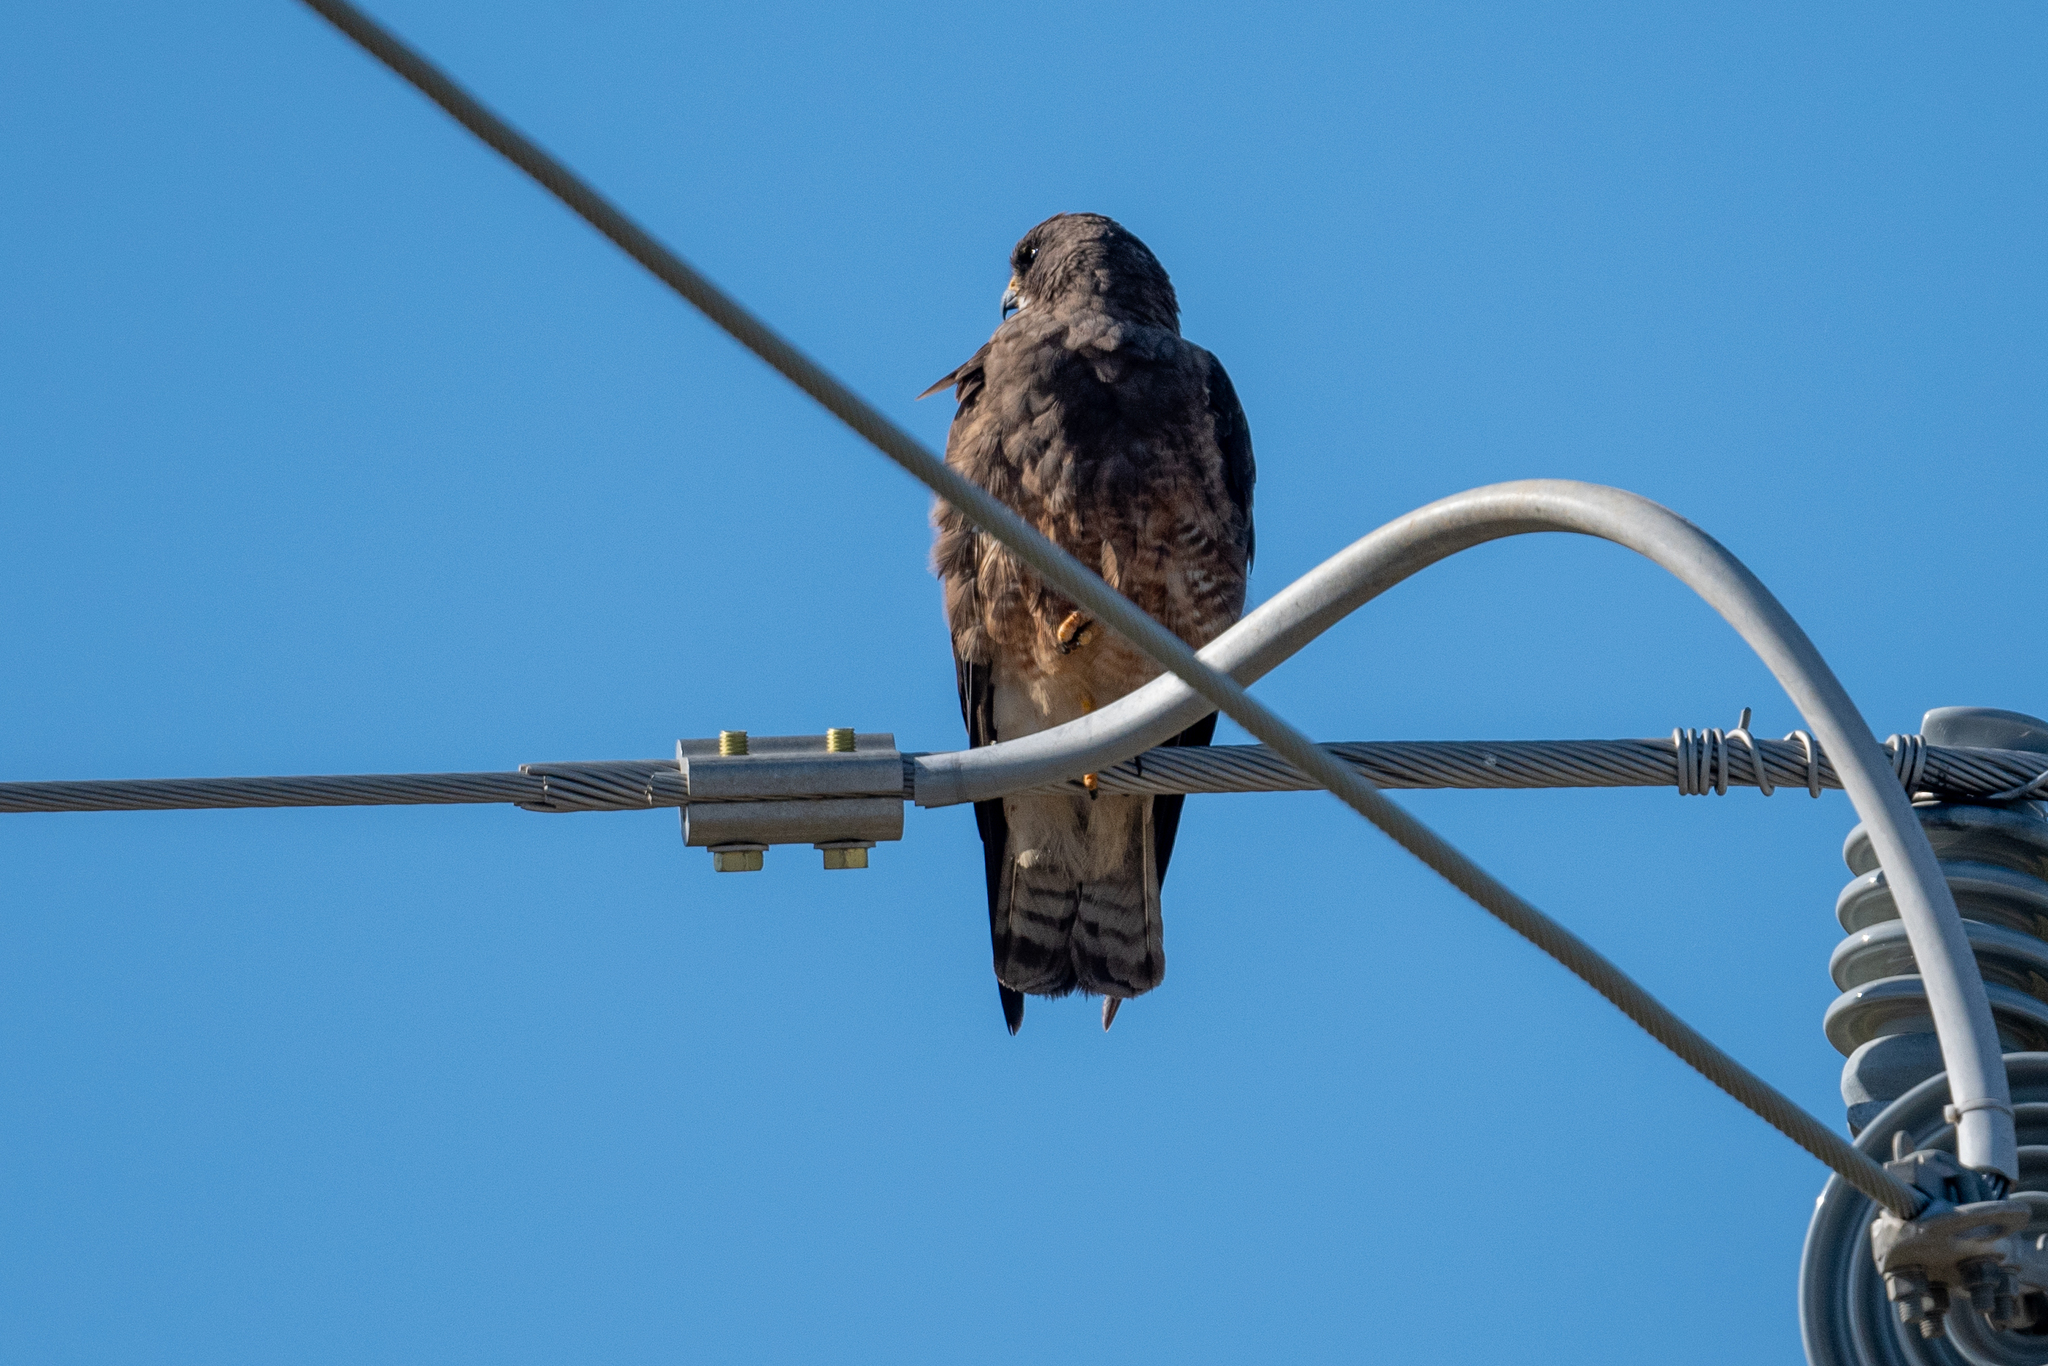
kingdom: Animalia
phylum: Chordata
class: Aves
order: Accipitriformes
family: Accipitridae
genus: Buteo
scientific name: Buteo swainsoni
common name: Swainson's hawk
